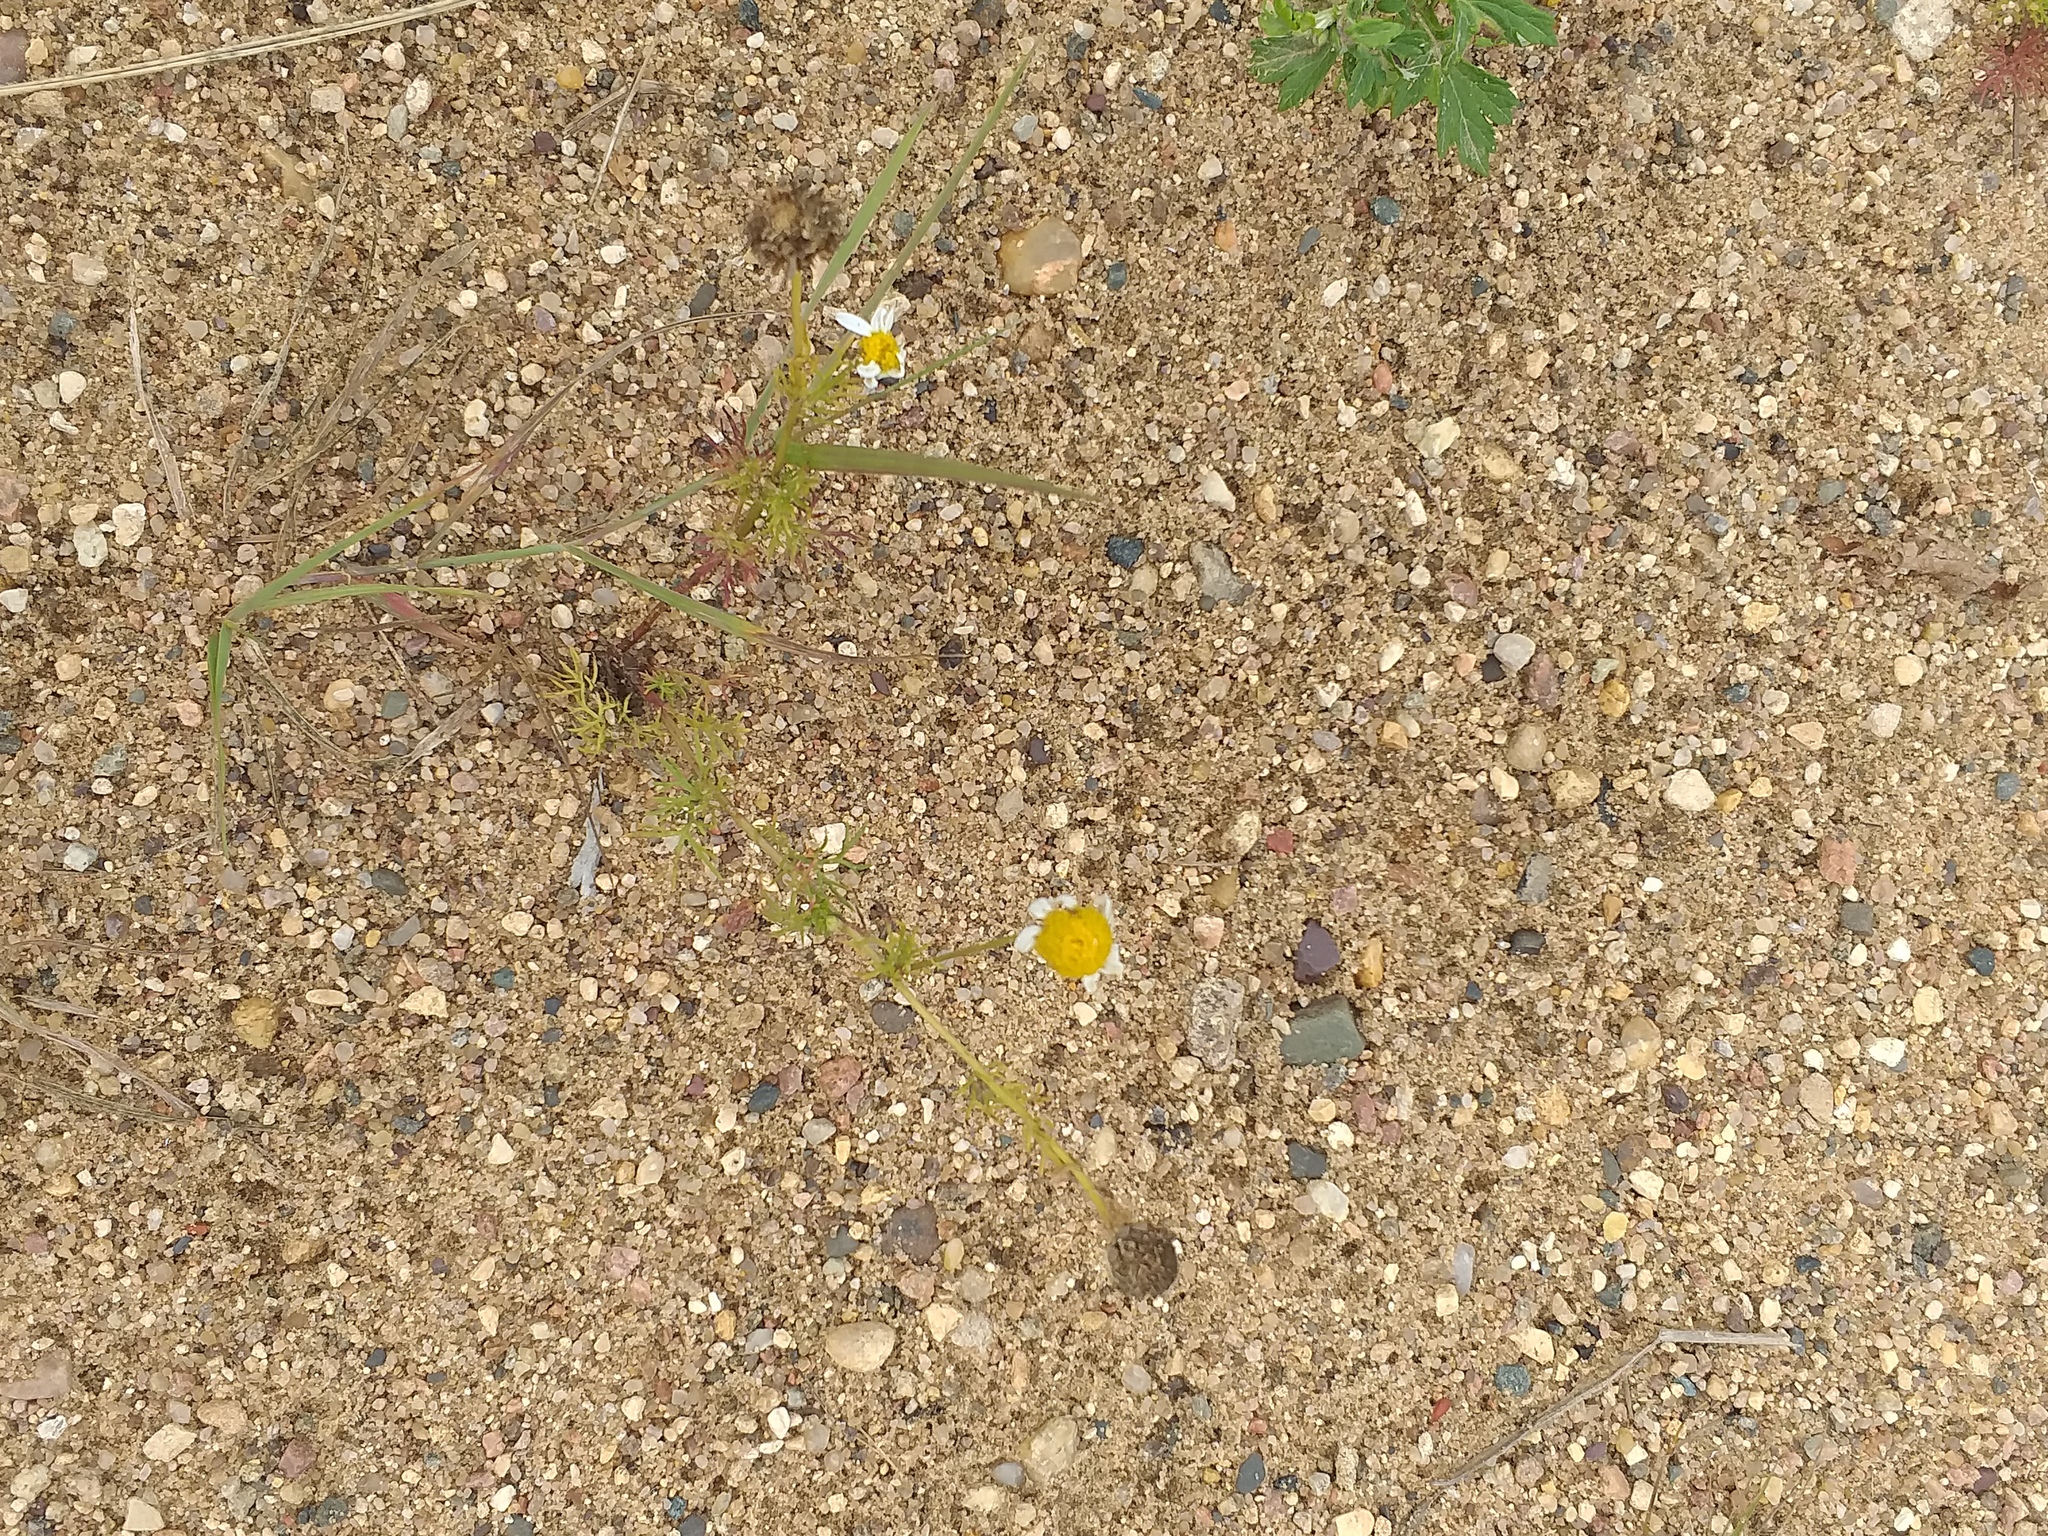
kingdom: Plantae
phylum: Tracheophyta
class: Magnoliopsida
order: Asterales
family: Asteraceae
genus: Tripleurospermum
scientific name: Tripleurospermum inodorum
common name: Scentless mayweed
